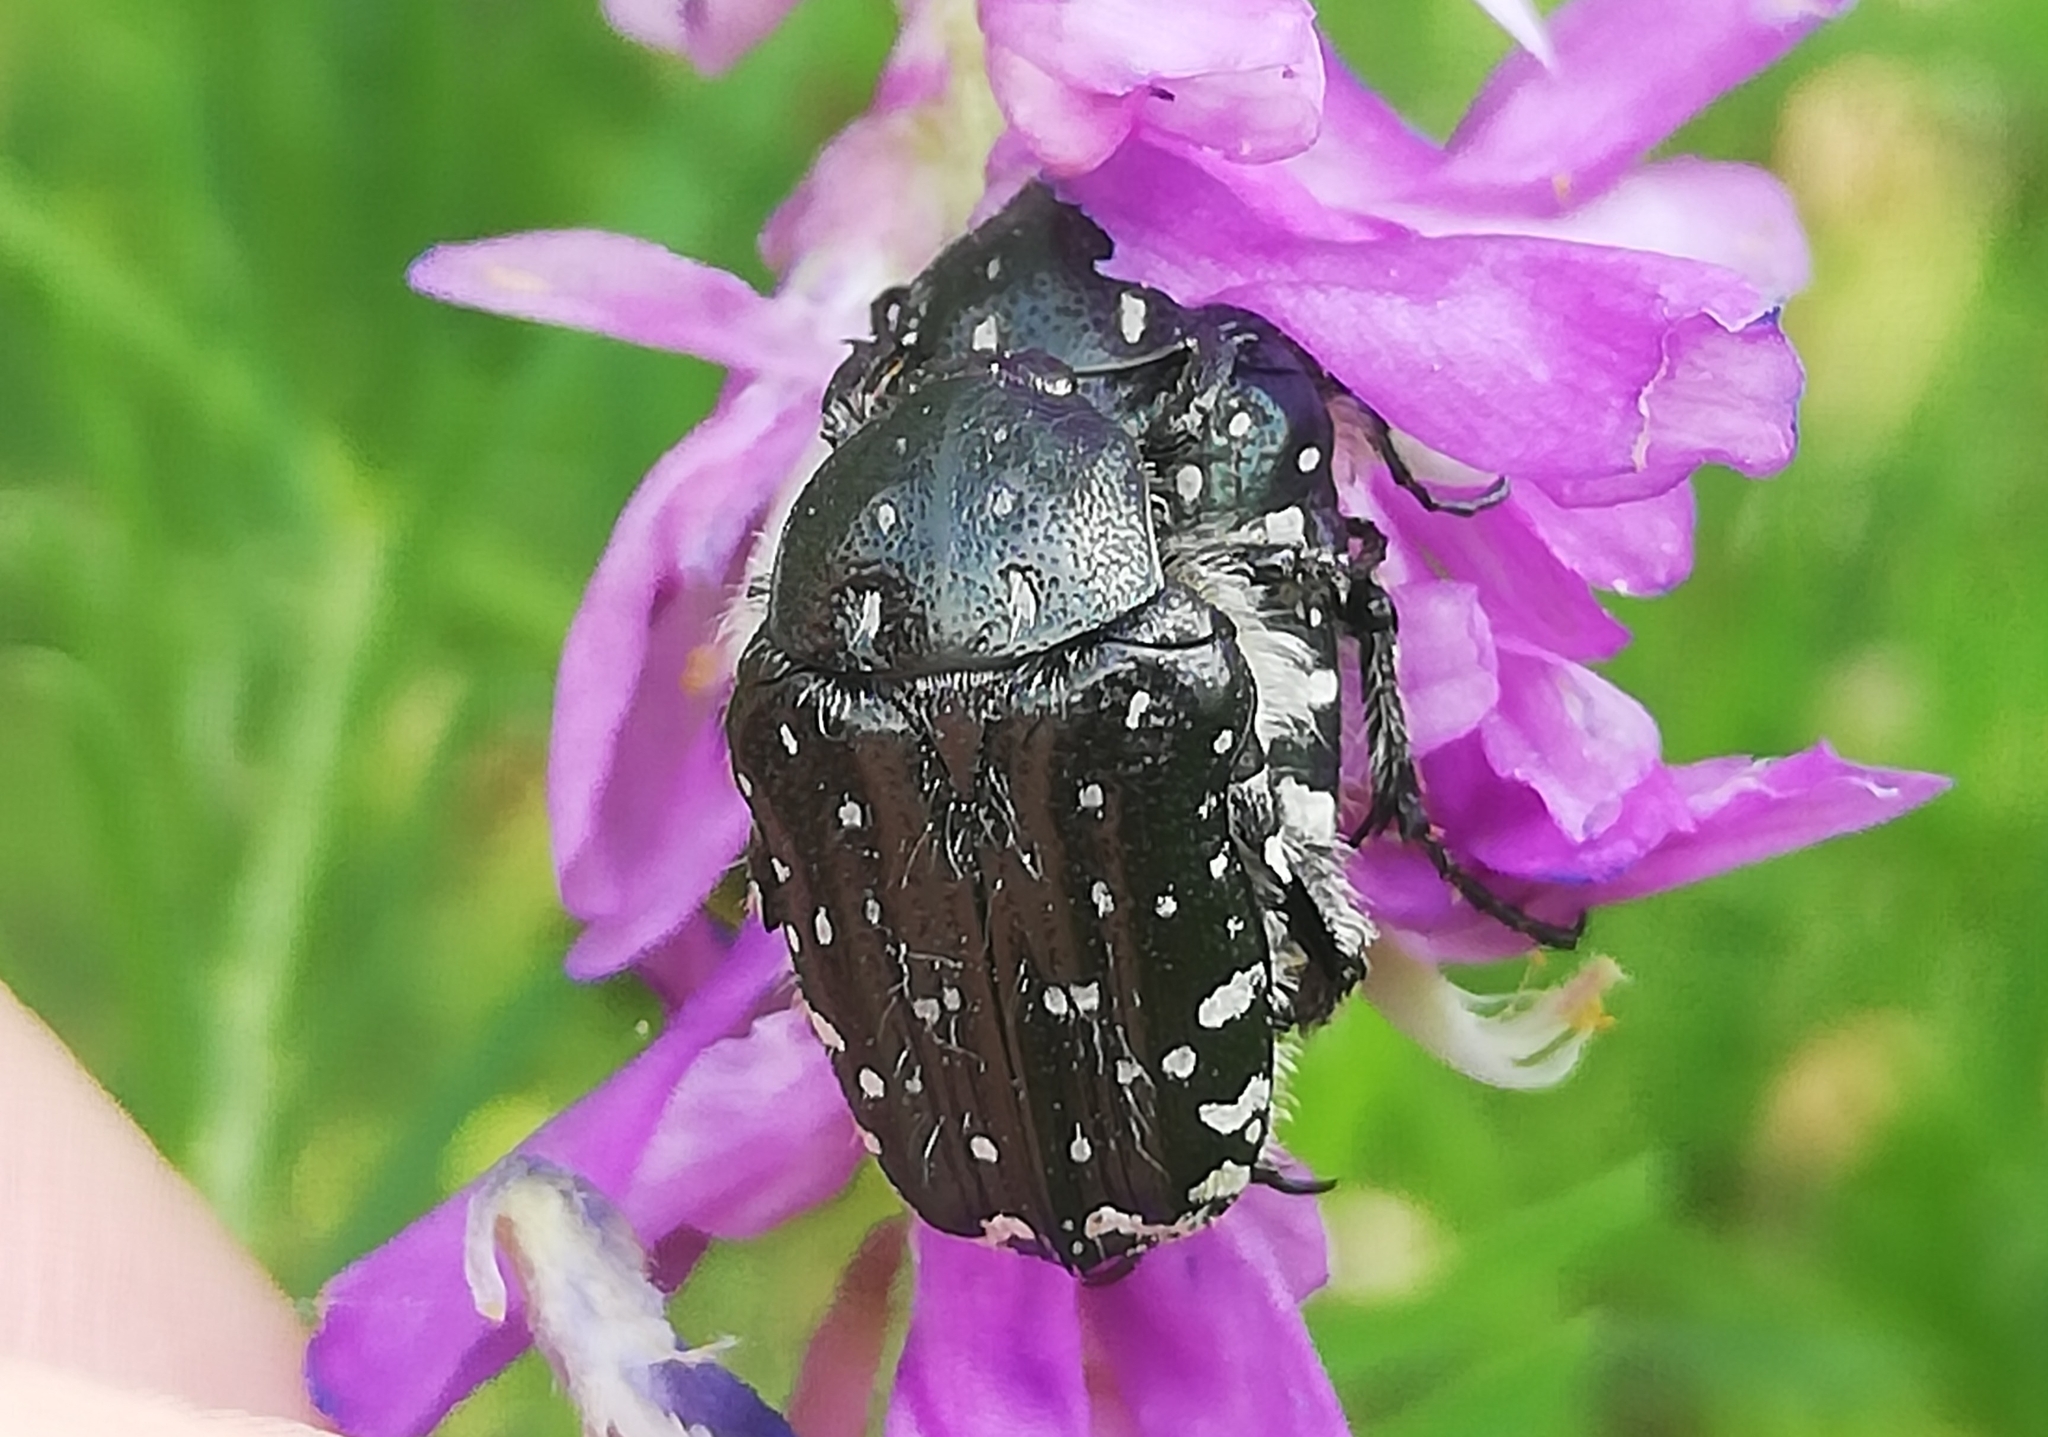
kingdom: Animalia
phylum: Arthropoda
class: Insecta
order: Coleoptera
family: Scarabaeidae
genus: Oxythyrea
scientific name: Oxythyrea funesta
